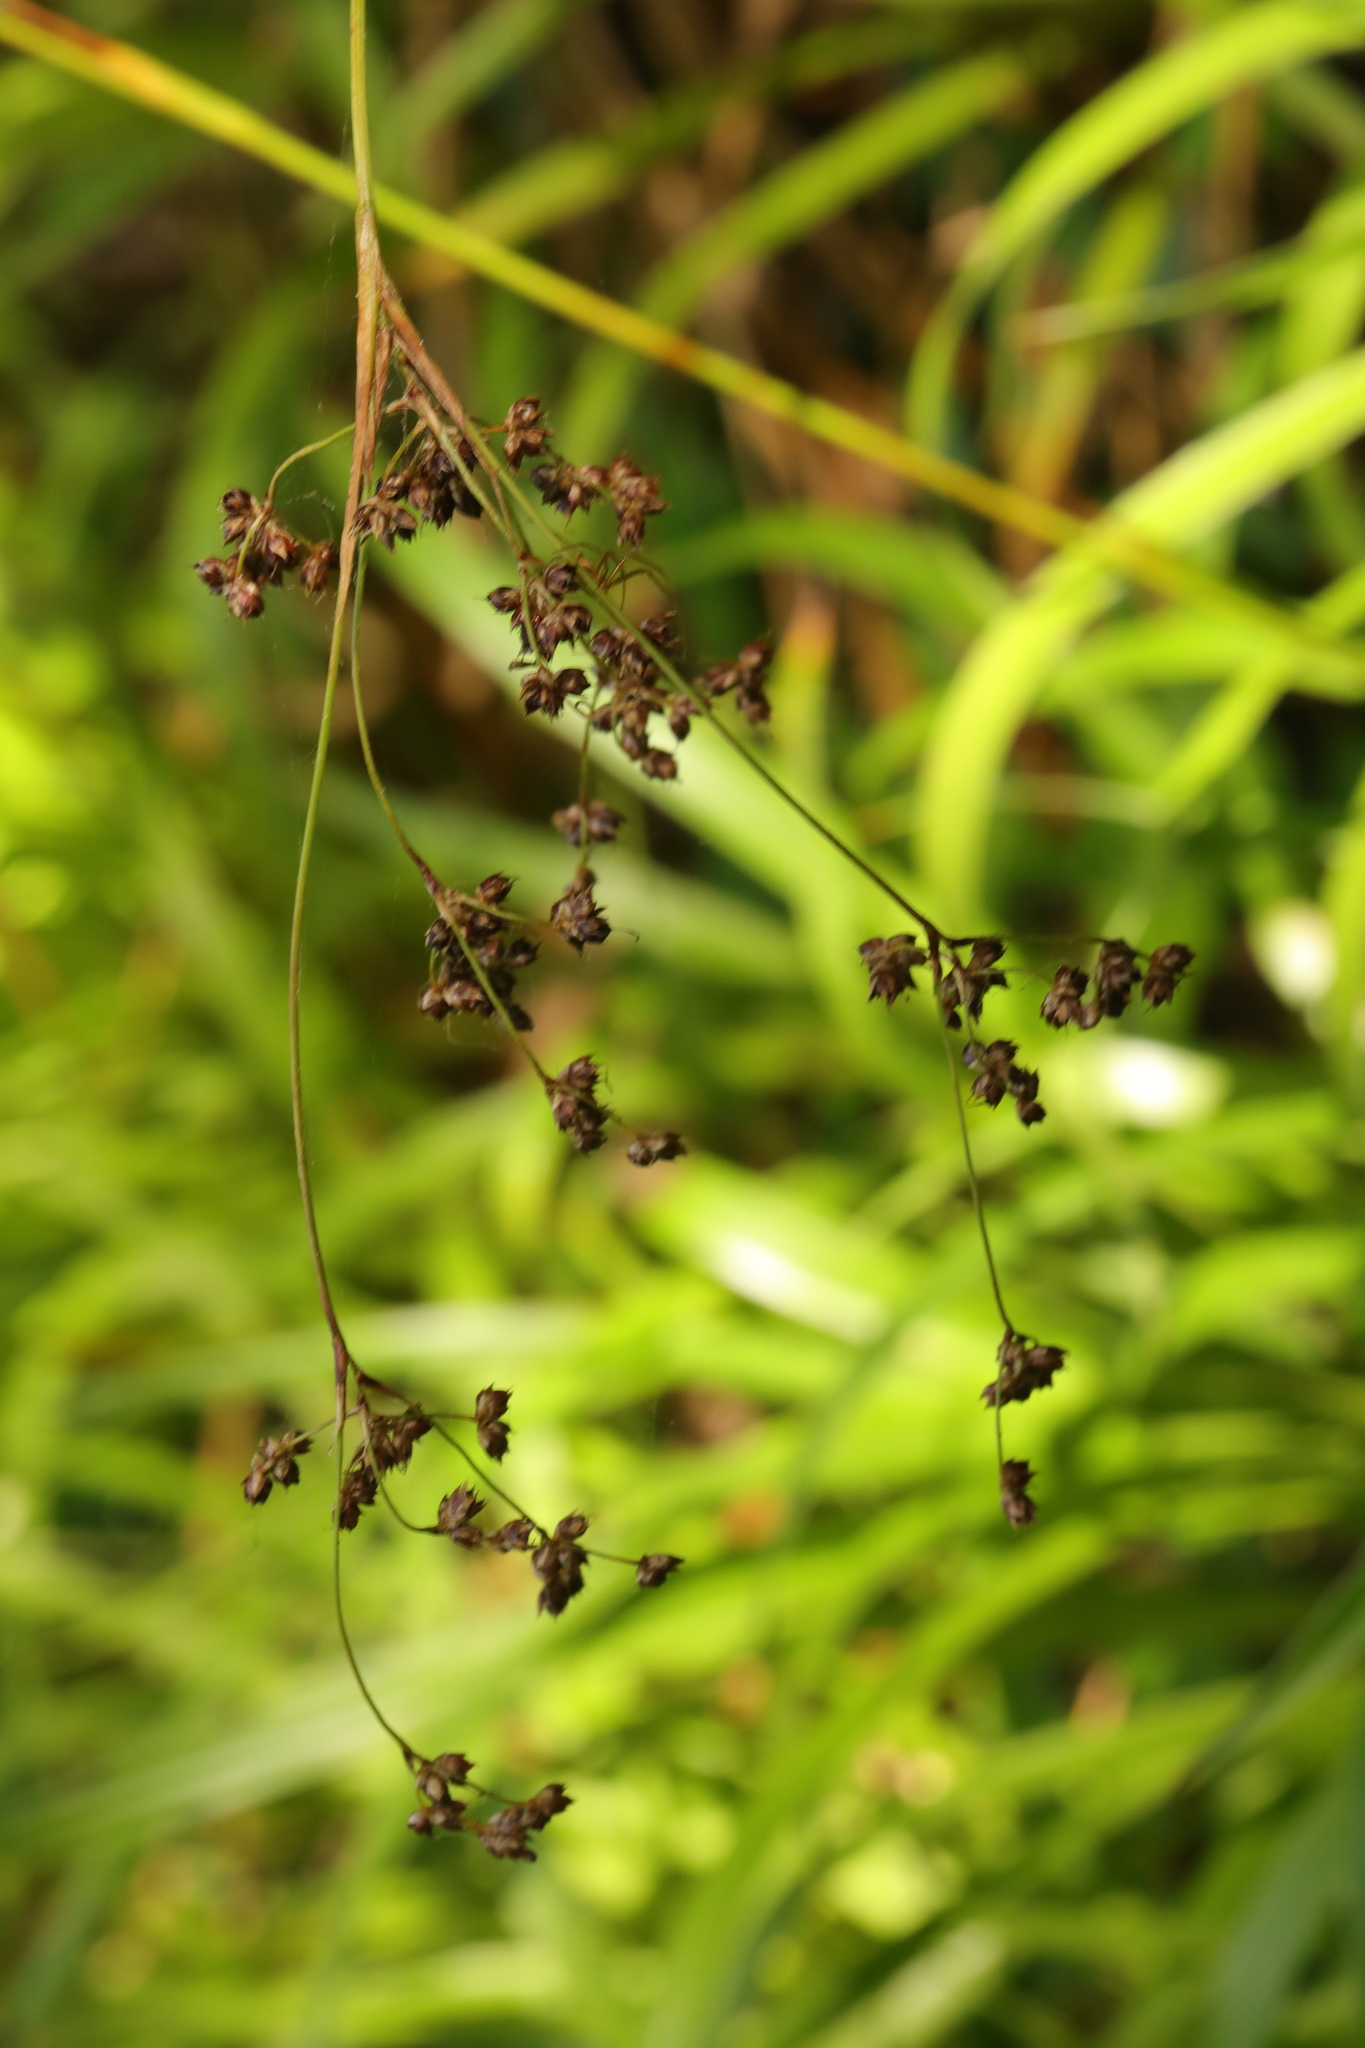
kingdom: Plantae
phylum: Tracheophyta
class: Liliopsida
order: Poales
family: Juncaceae
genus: Luzula
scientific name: Luzula sylvatica
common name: Great wood-rush
